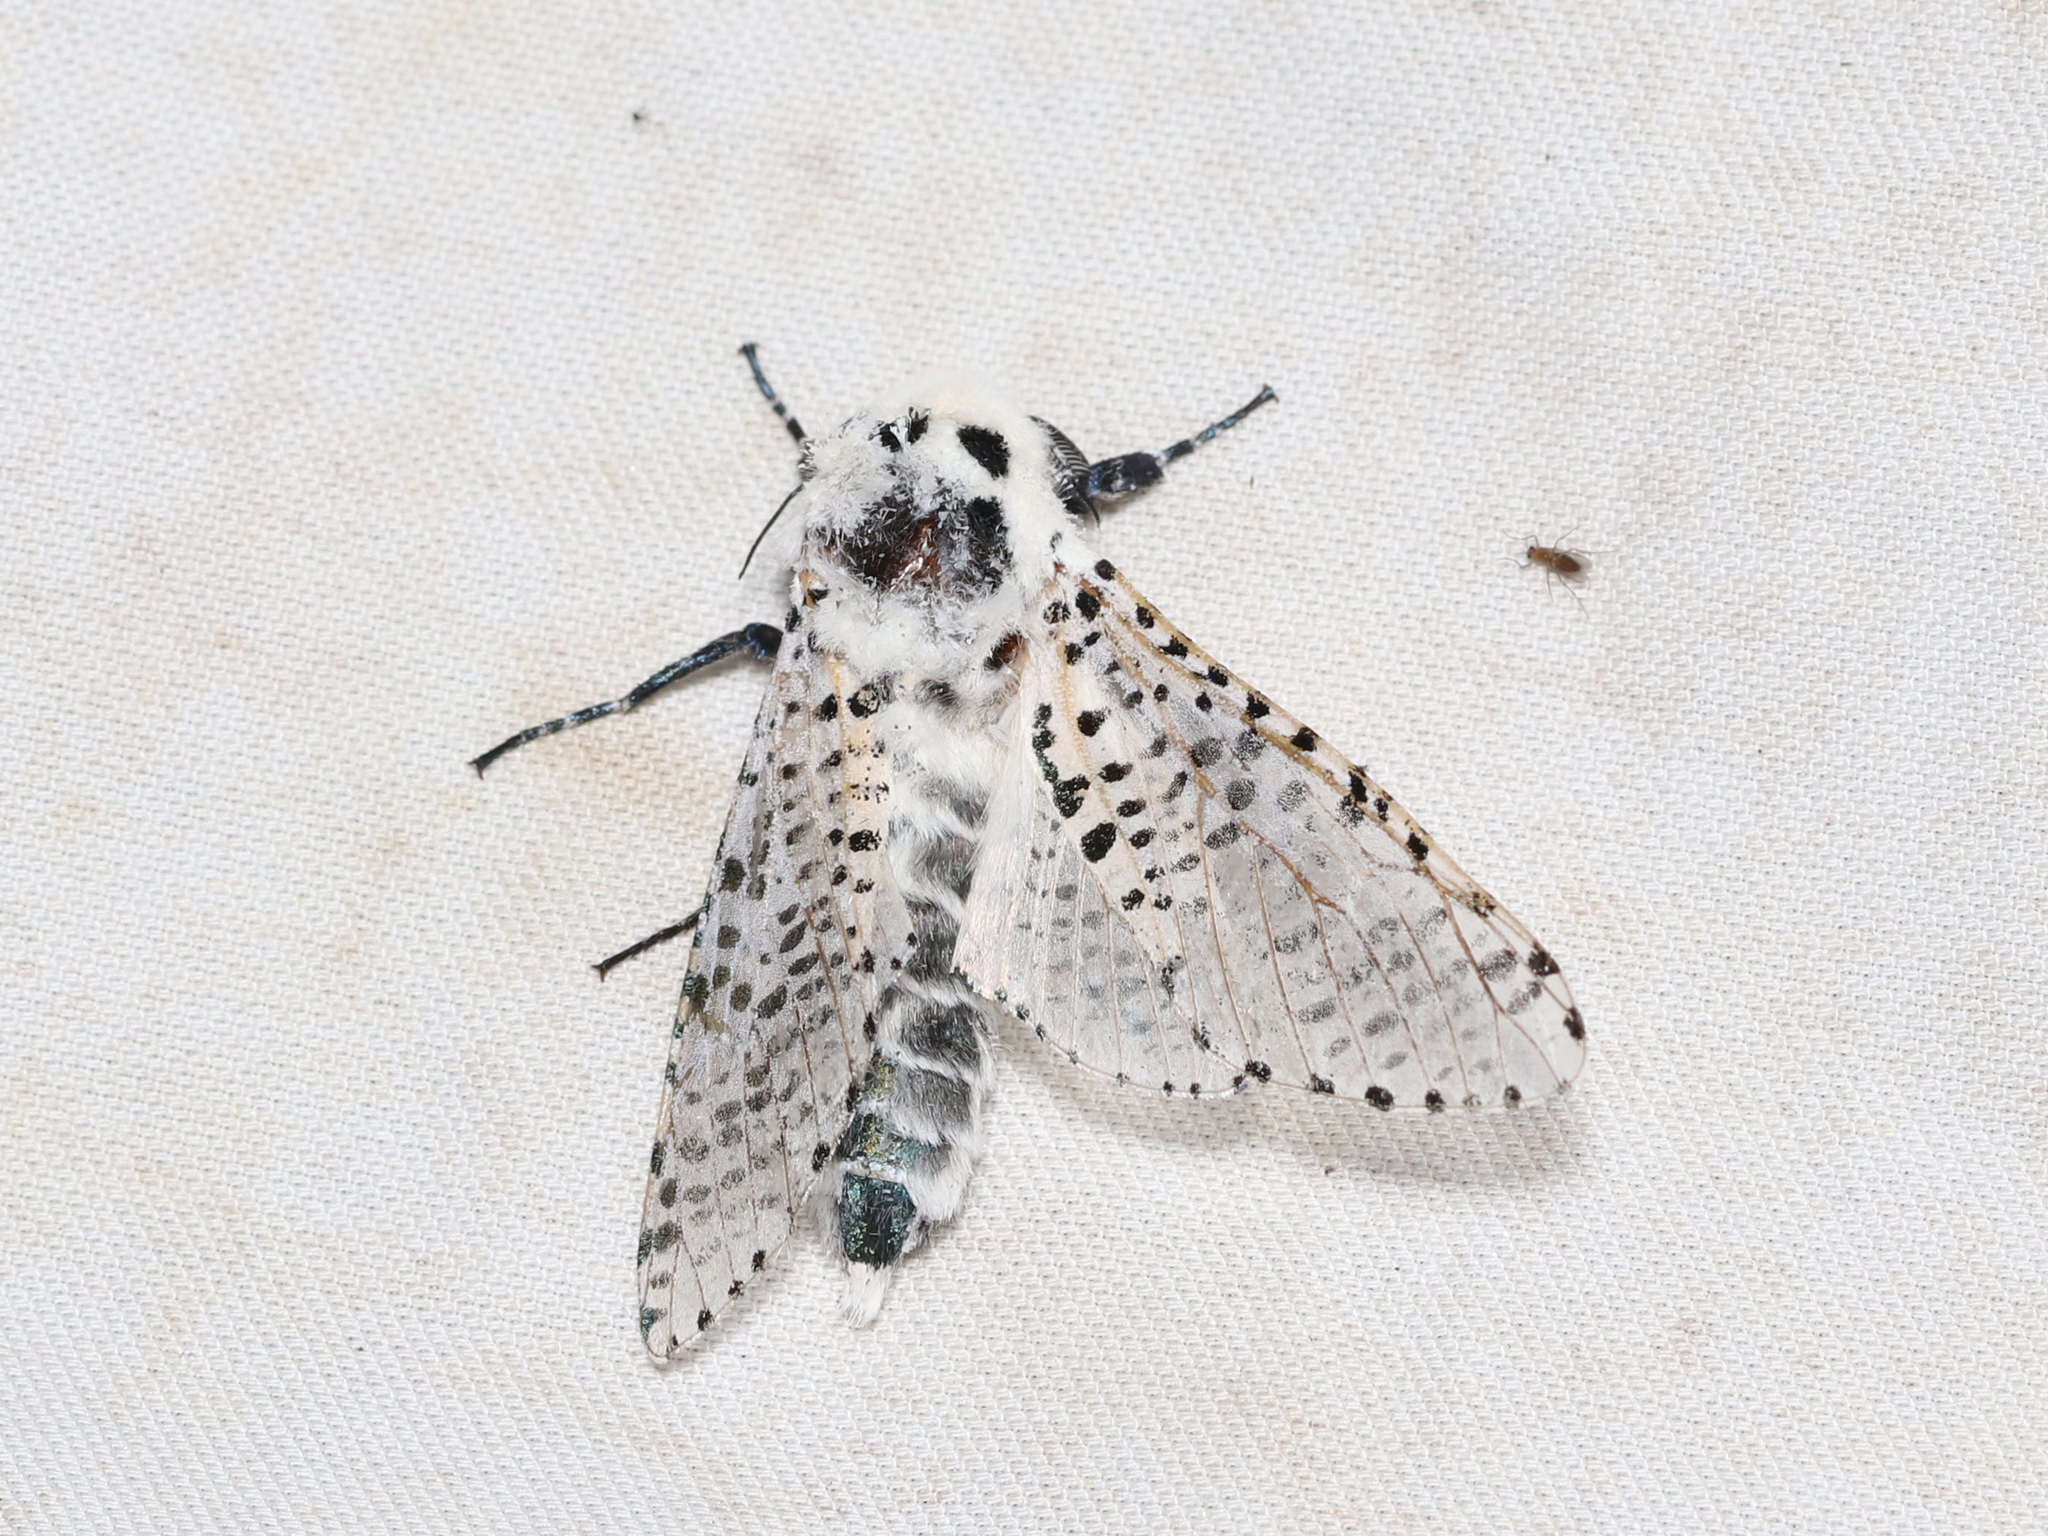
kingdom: Animalia
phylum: Arthropoda
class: Insecta
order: Lepidoptera
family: Cossidae
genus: Zeuzera
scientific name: Zeuzera pyrina
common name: Leopard moth
